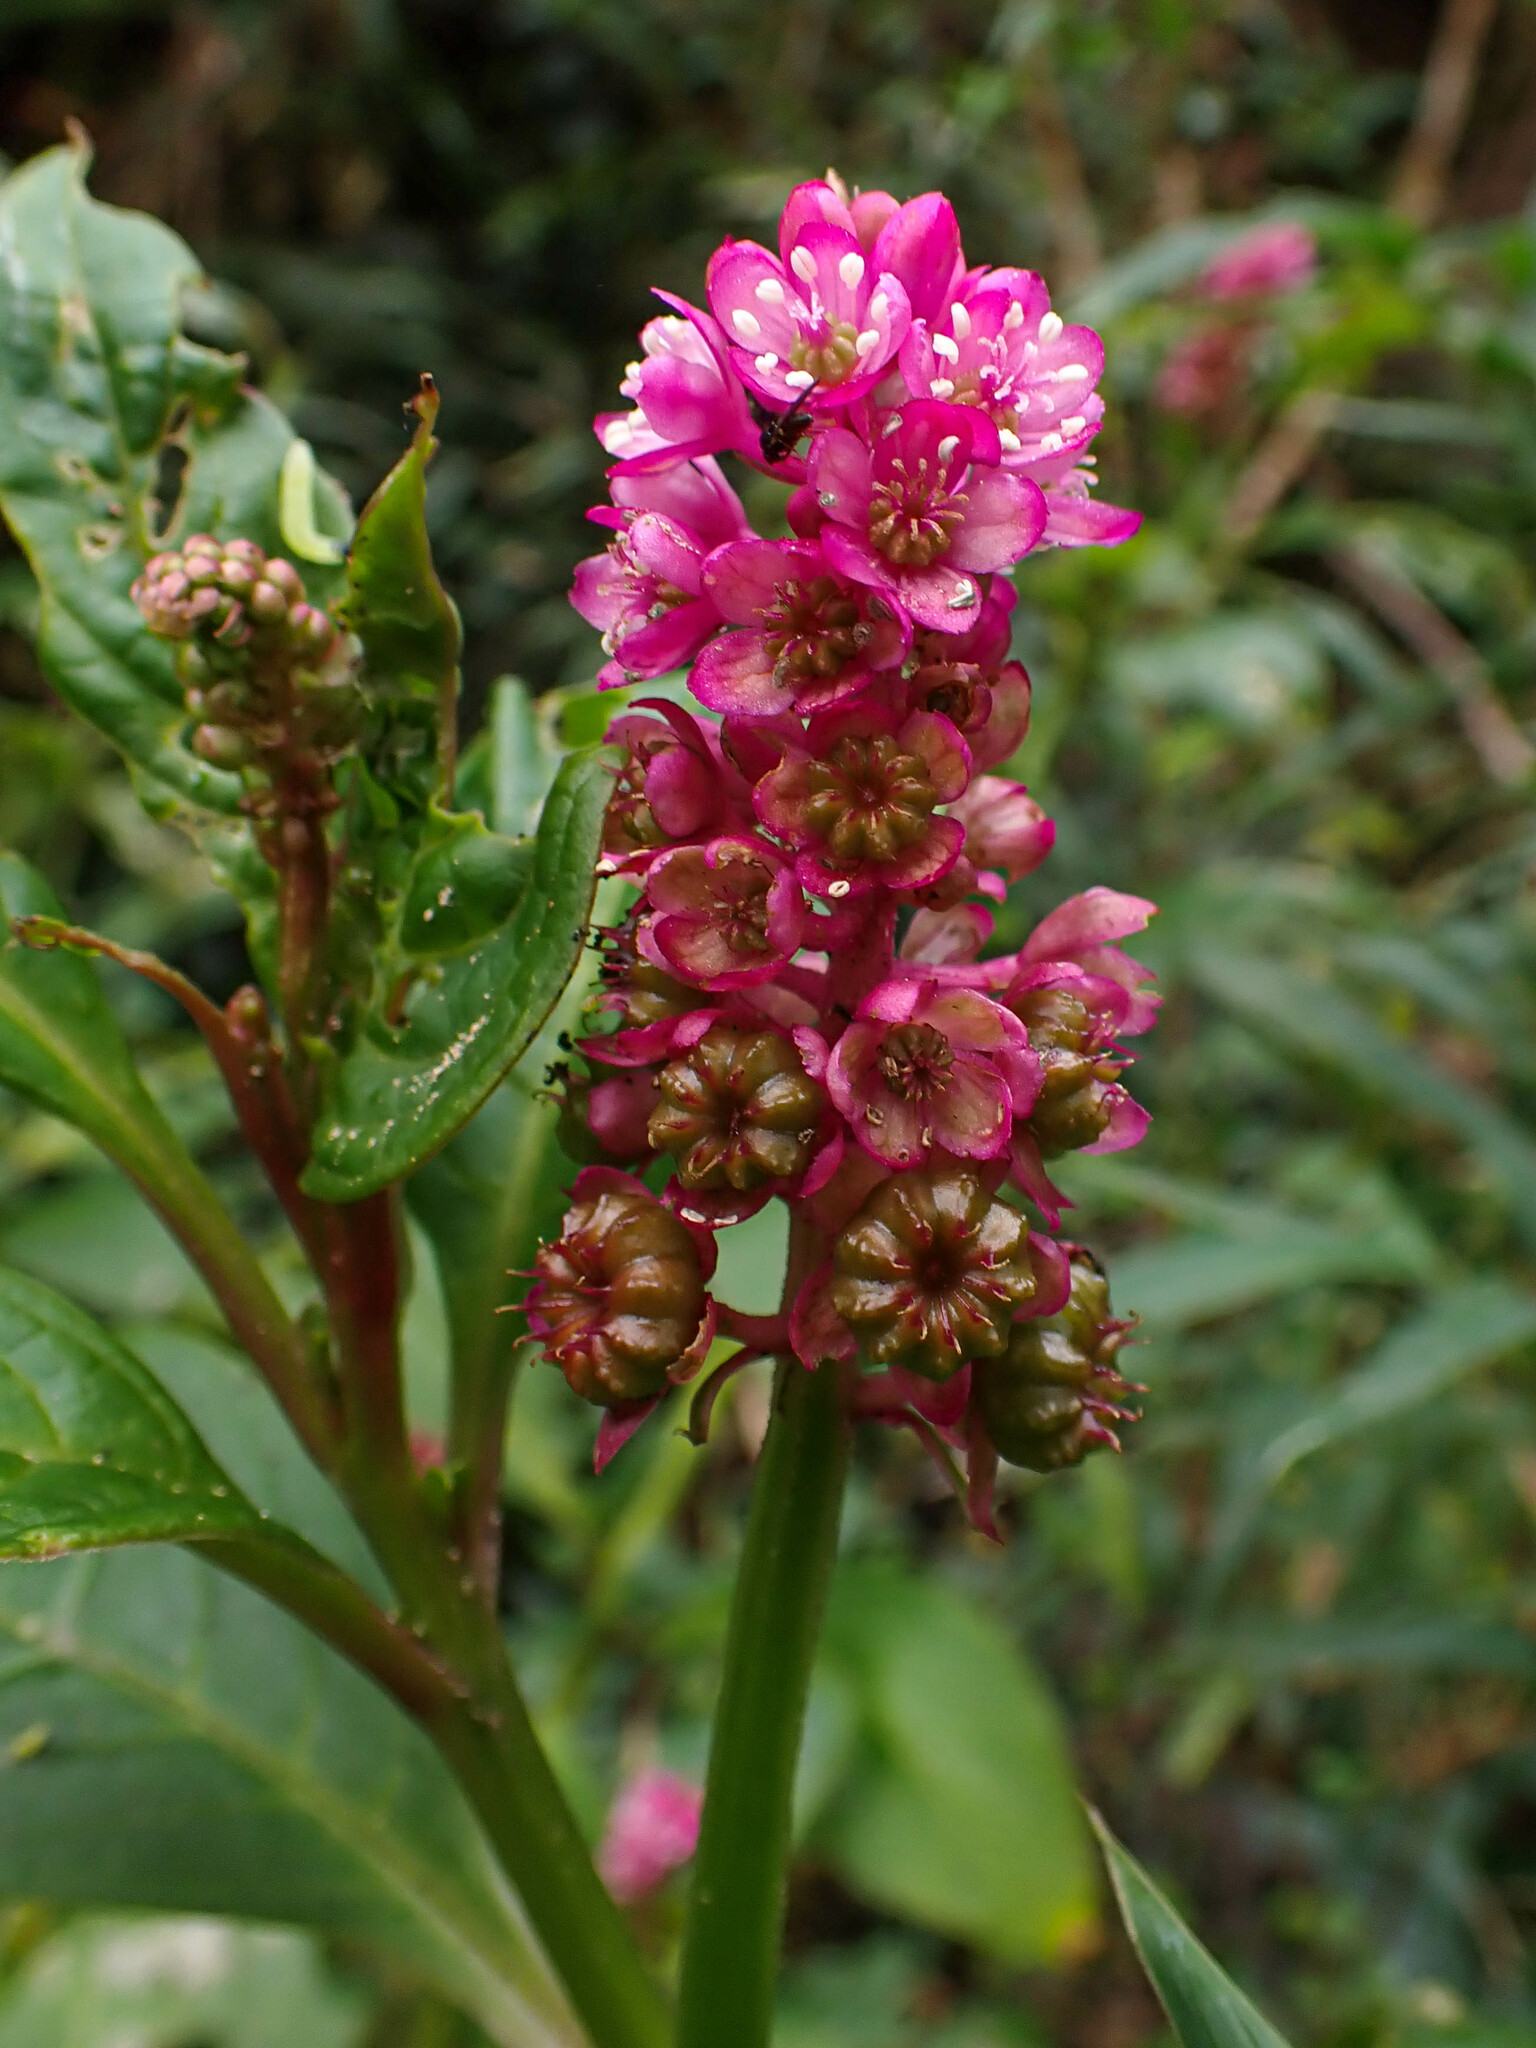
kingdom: Plantae
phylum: Tracheophyta
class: Magnoliopsida
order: Caryophyllales
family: Phytolaccaceae
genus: Phytolacca
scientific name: Phytolacca bogotensis
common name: Southern pokeweed
